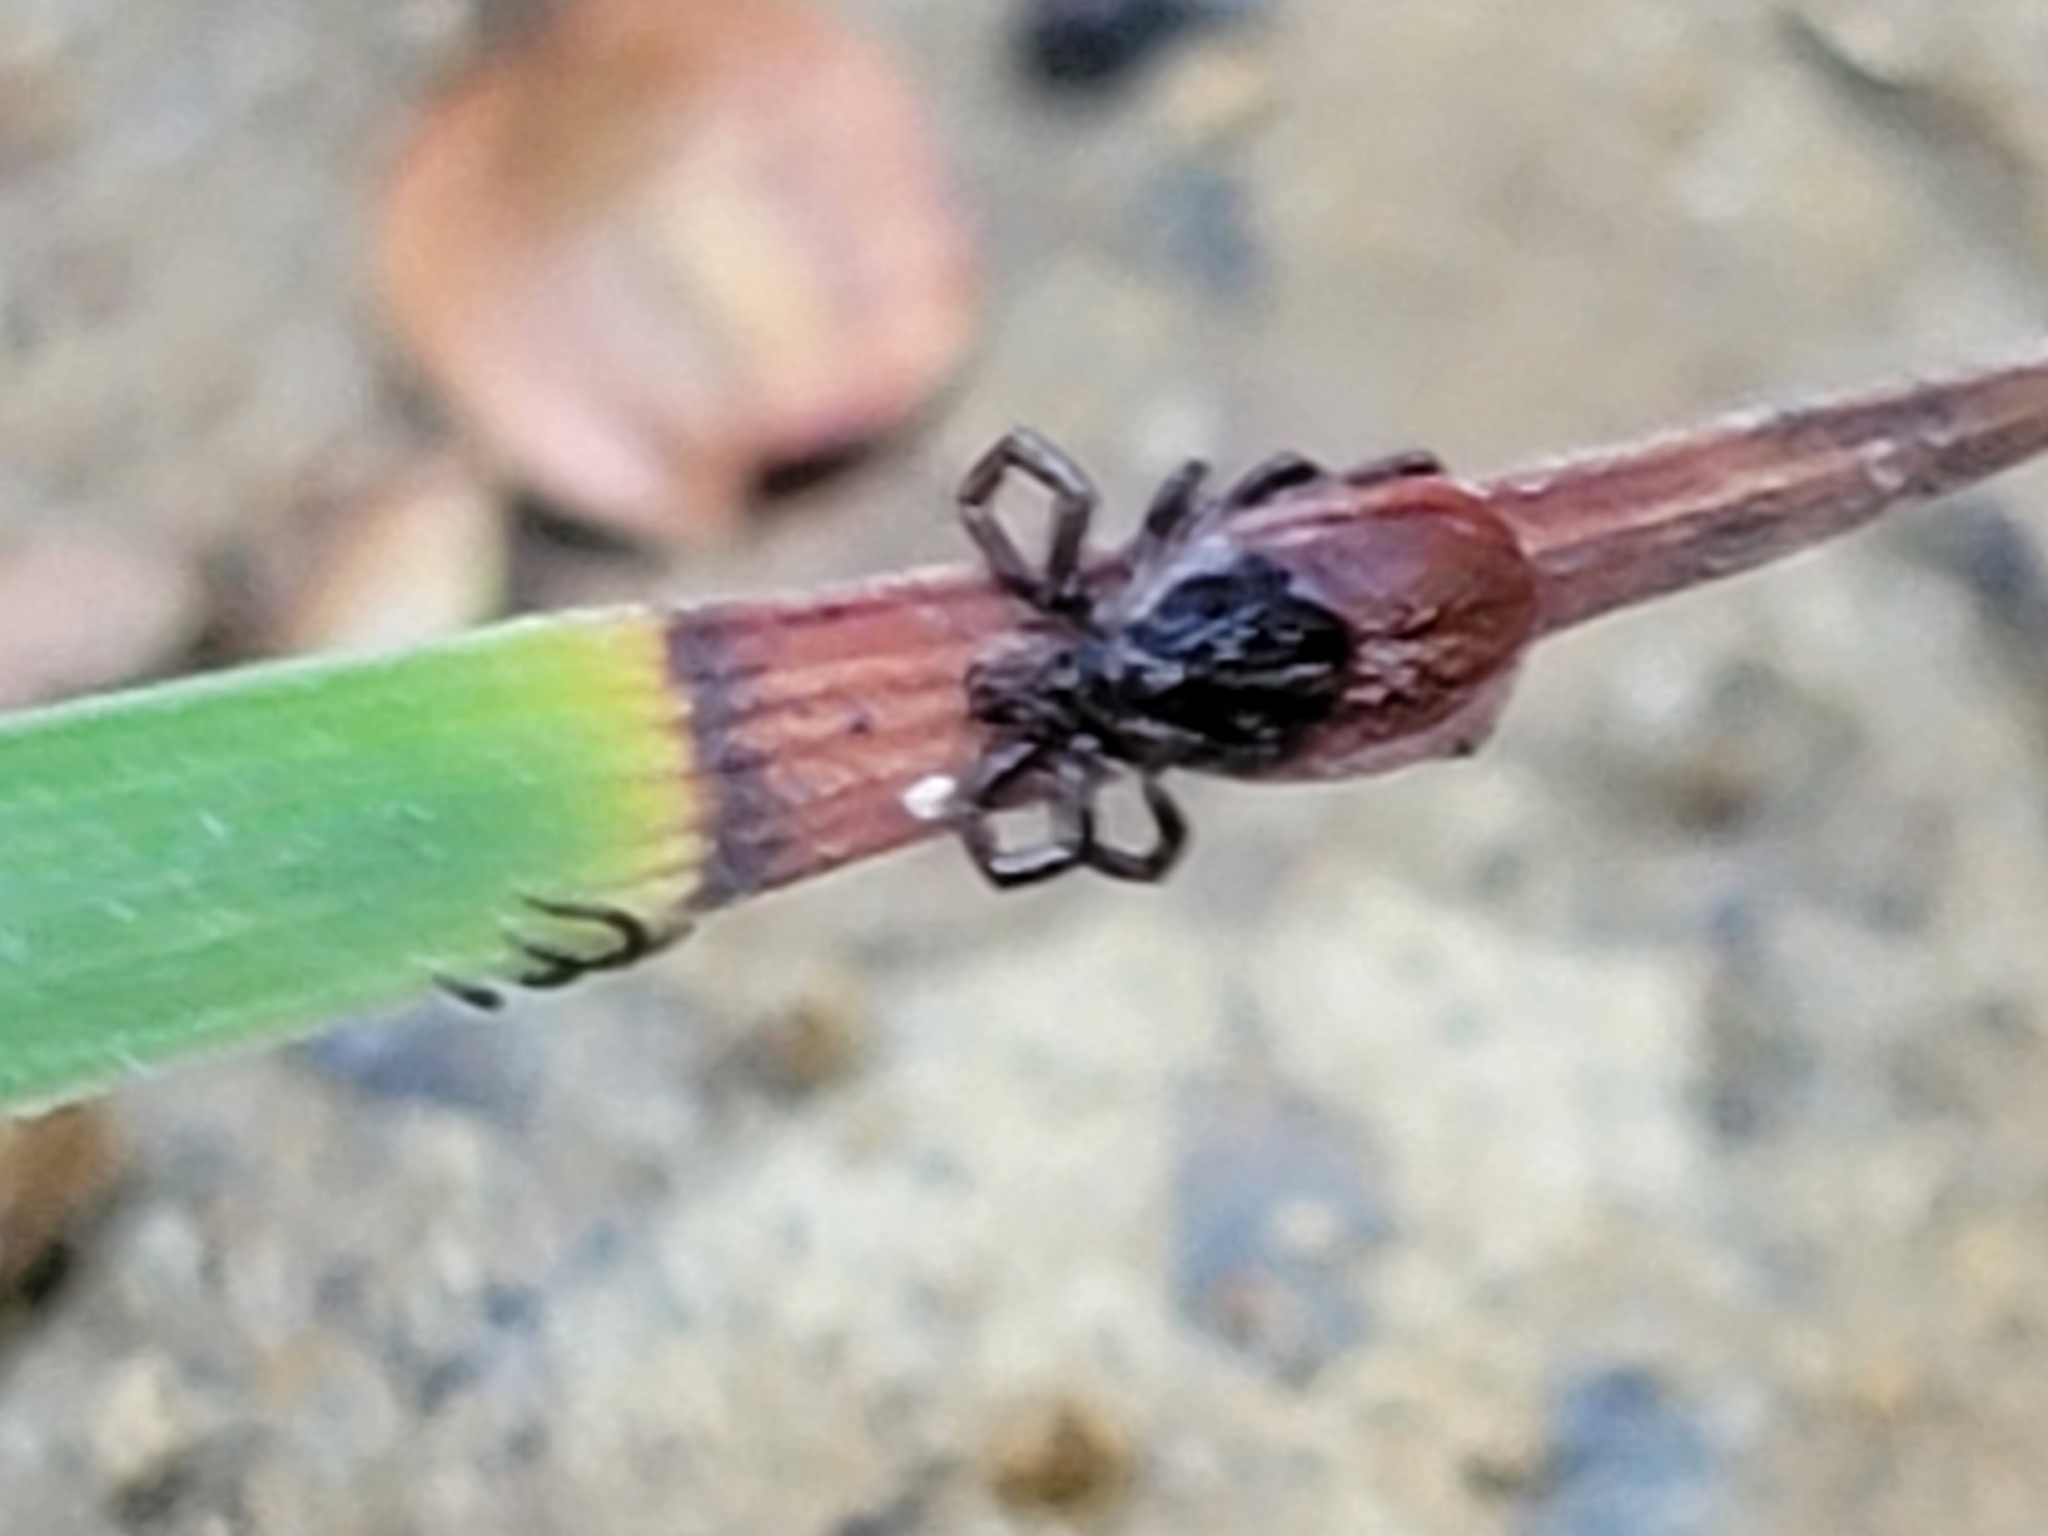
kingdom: Animalia
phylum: Arthropoda
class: Arachnida
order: Ixodida
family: Ixodidae
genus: Ixodes
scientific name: Ixodes pacificus
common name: California black-legged tick
